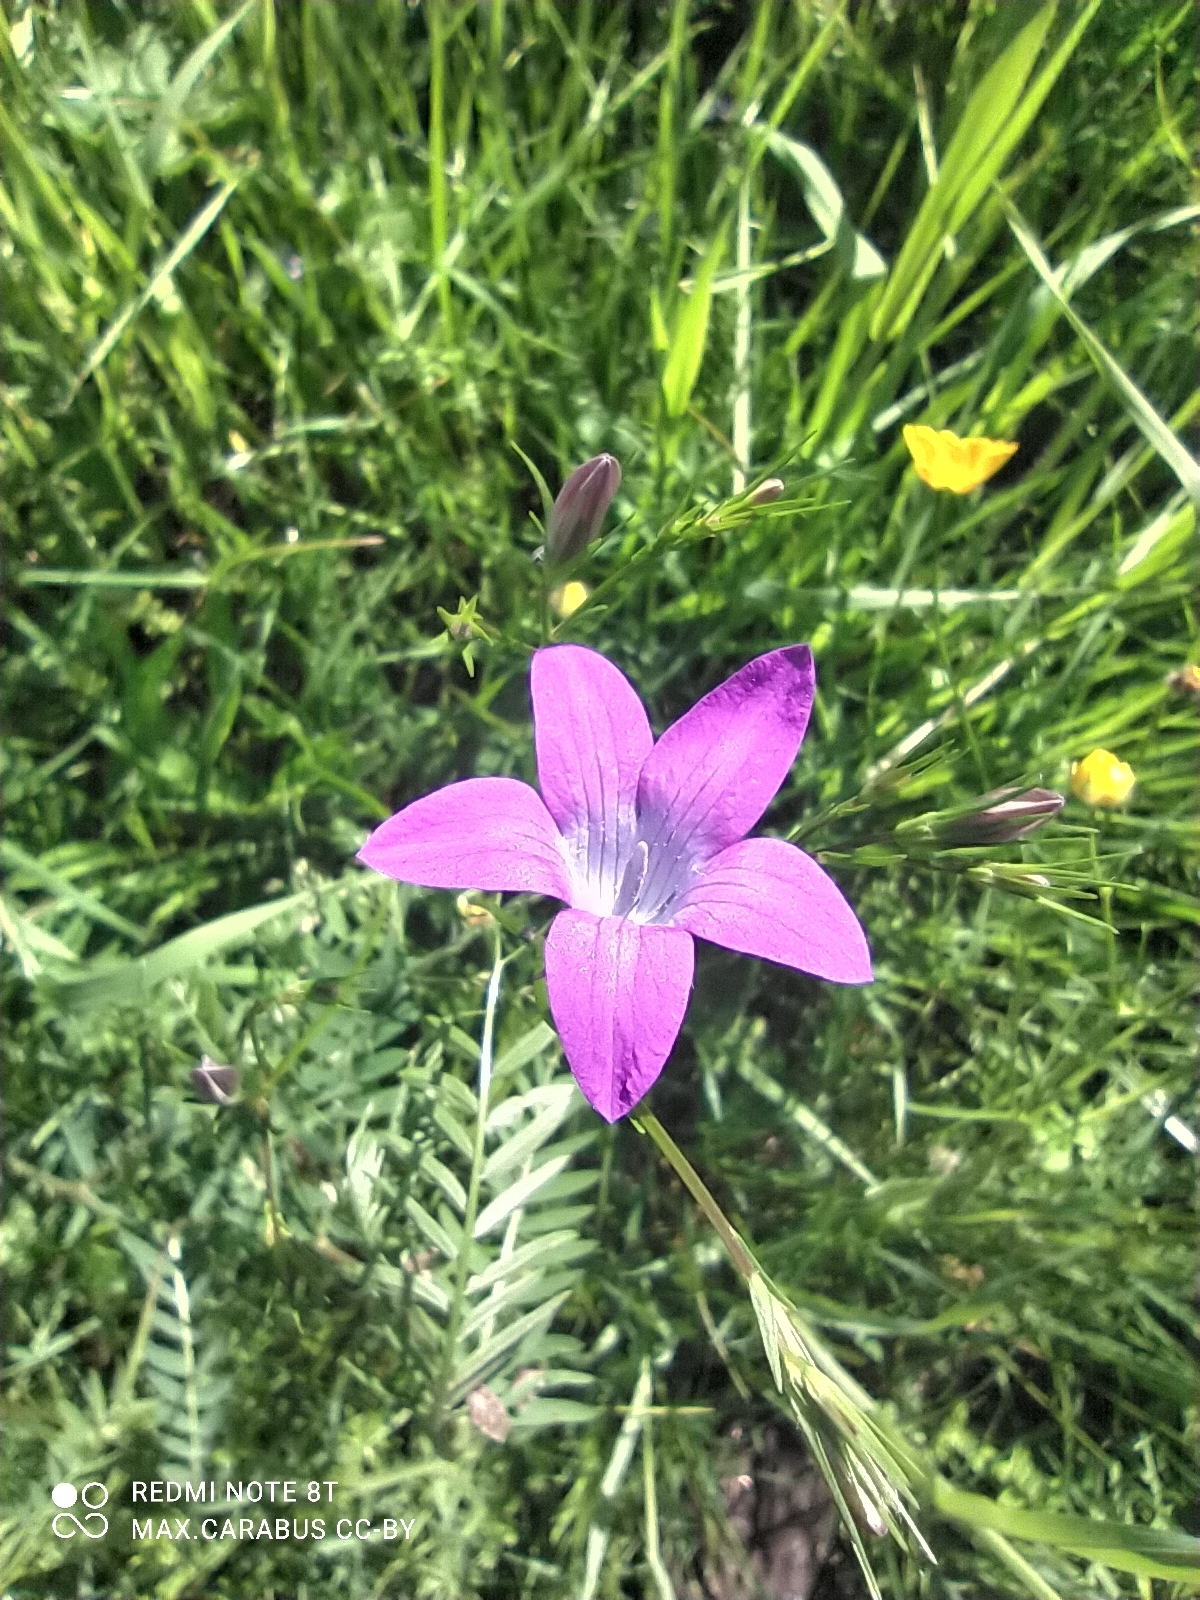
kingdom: Plantae
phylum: Tracheophyta
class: Magnoliopsida
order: Asterales
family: Campanulaceae
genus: Campanula
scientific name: Campanula patula
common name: Spreading bellflower
